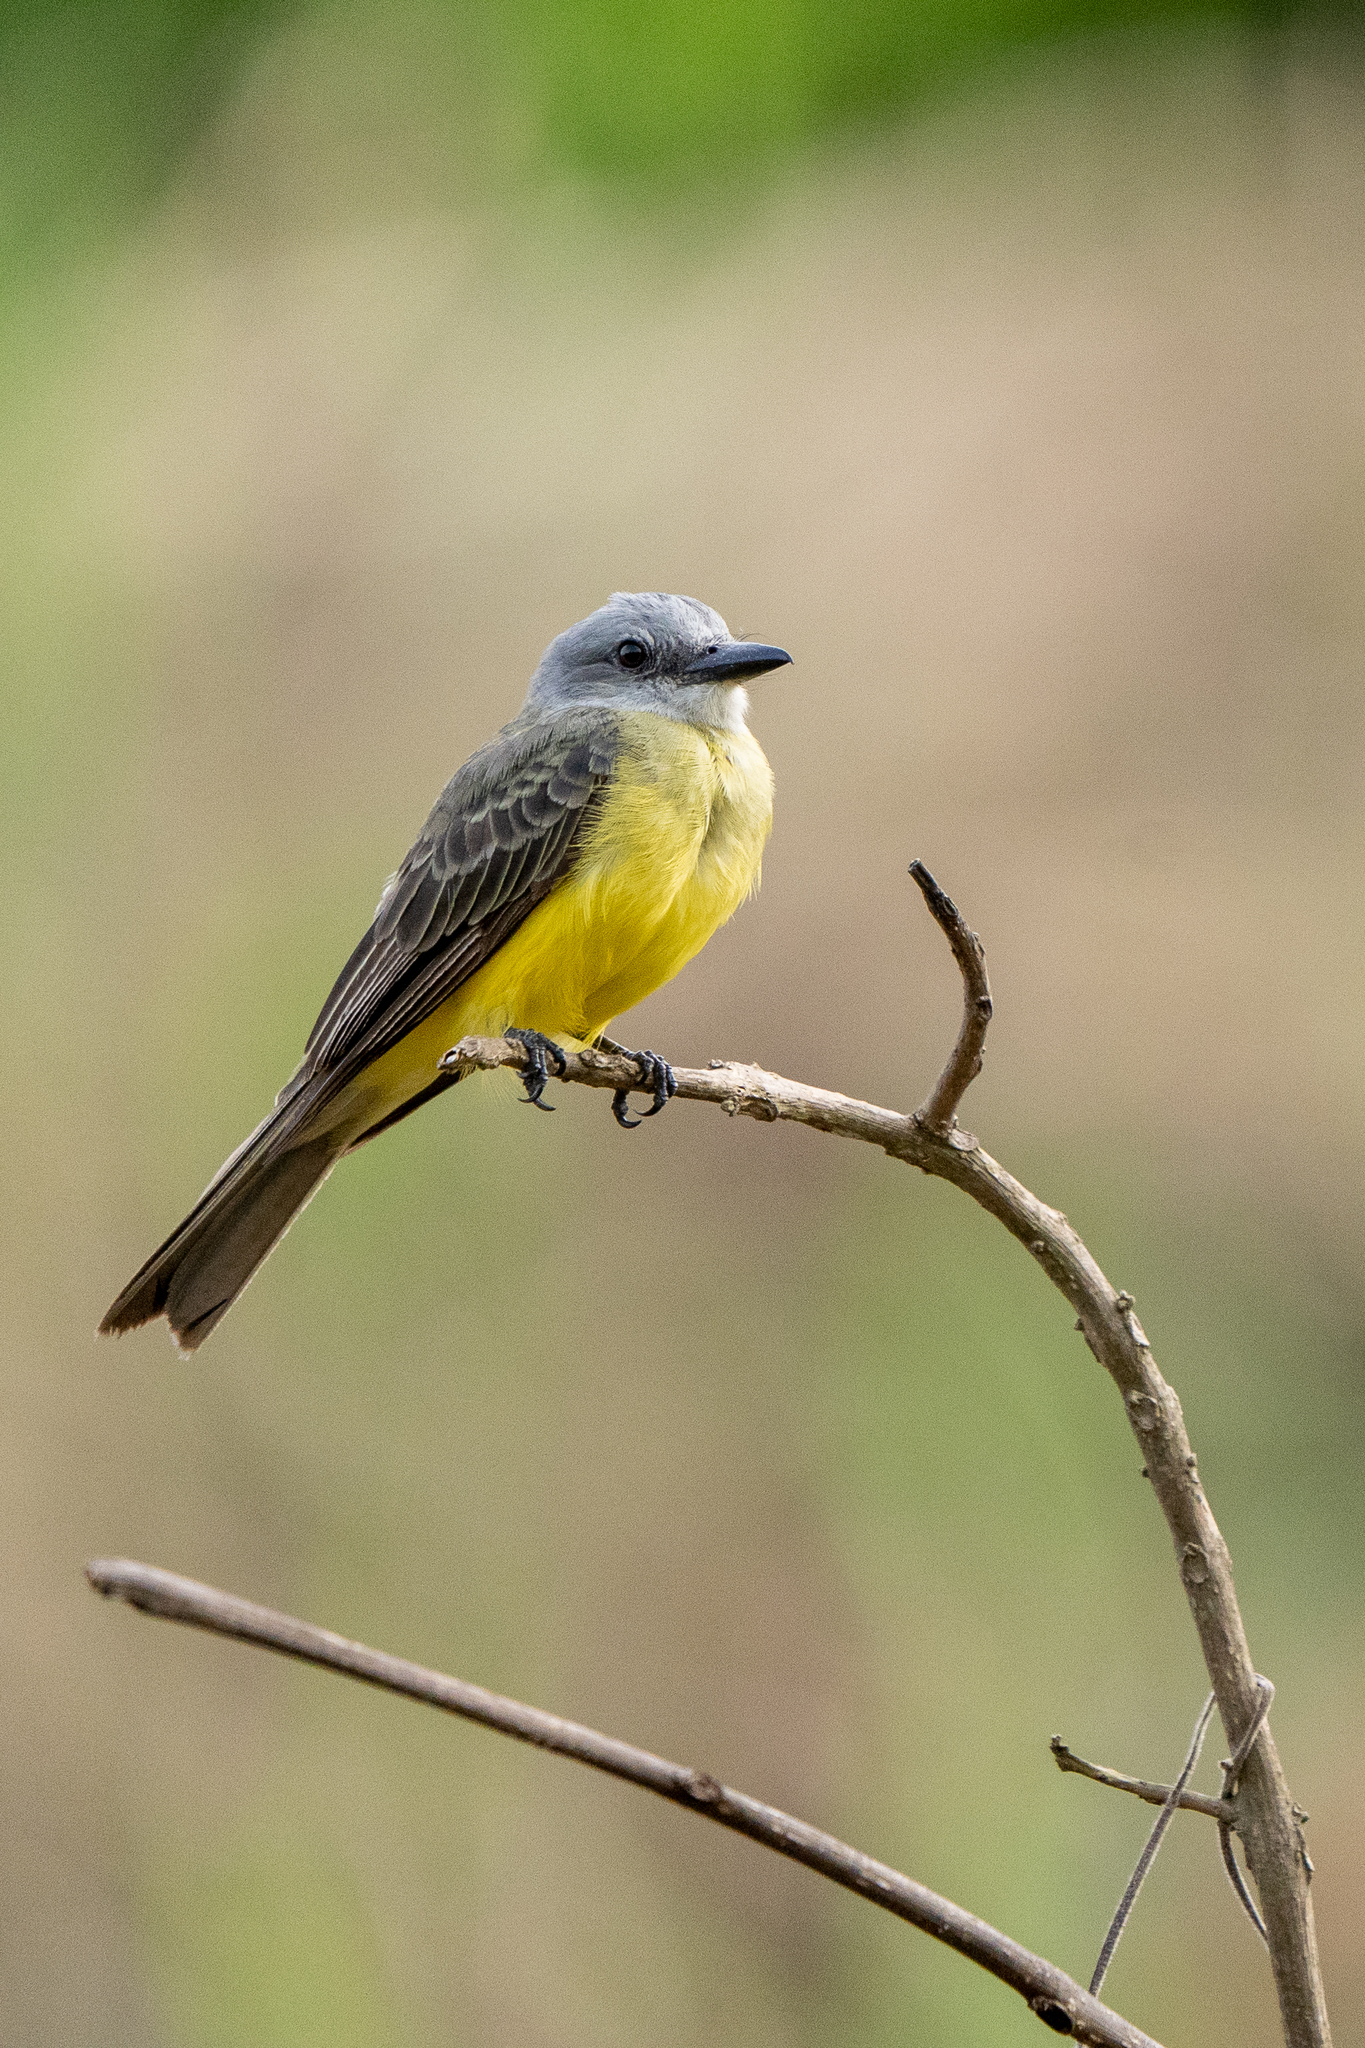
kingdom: Animalia
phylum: Chordata
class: Aves
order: Passeriformes
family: Tyrannidae
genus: Tyrannus
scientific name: Tyrannus melancholicus
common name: Tropical kingbird
